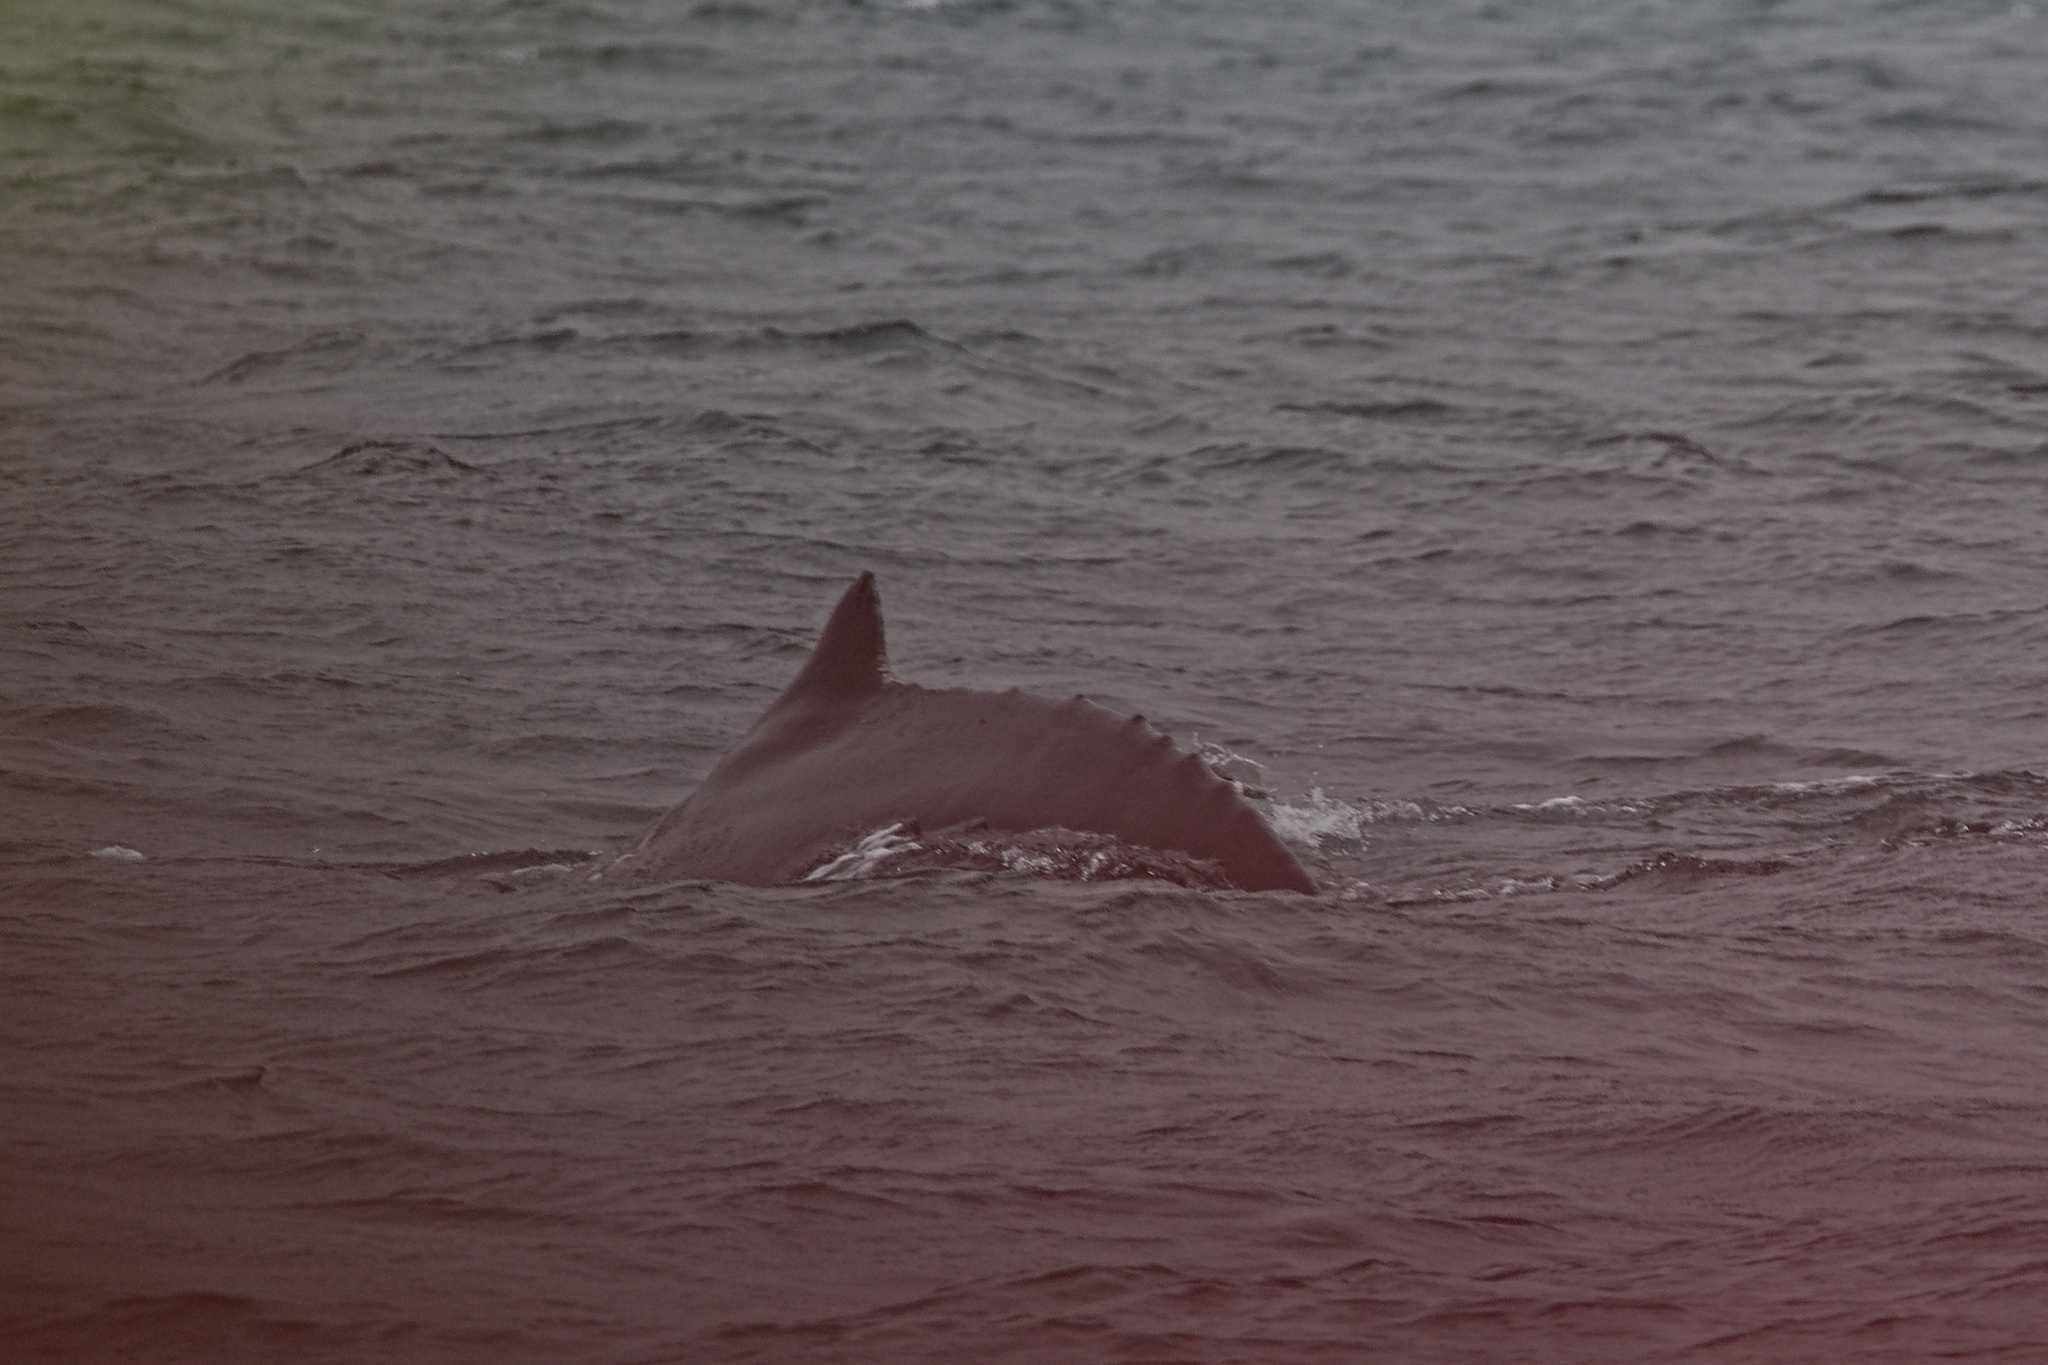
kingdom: Animalia
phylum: Chordata
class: Mammalia
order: Cetacea
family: Balaenopteridae
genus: Megaptera
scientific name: Megaptera novaeangliae
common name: Humpback whale
